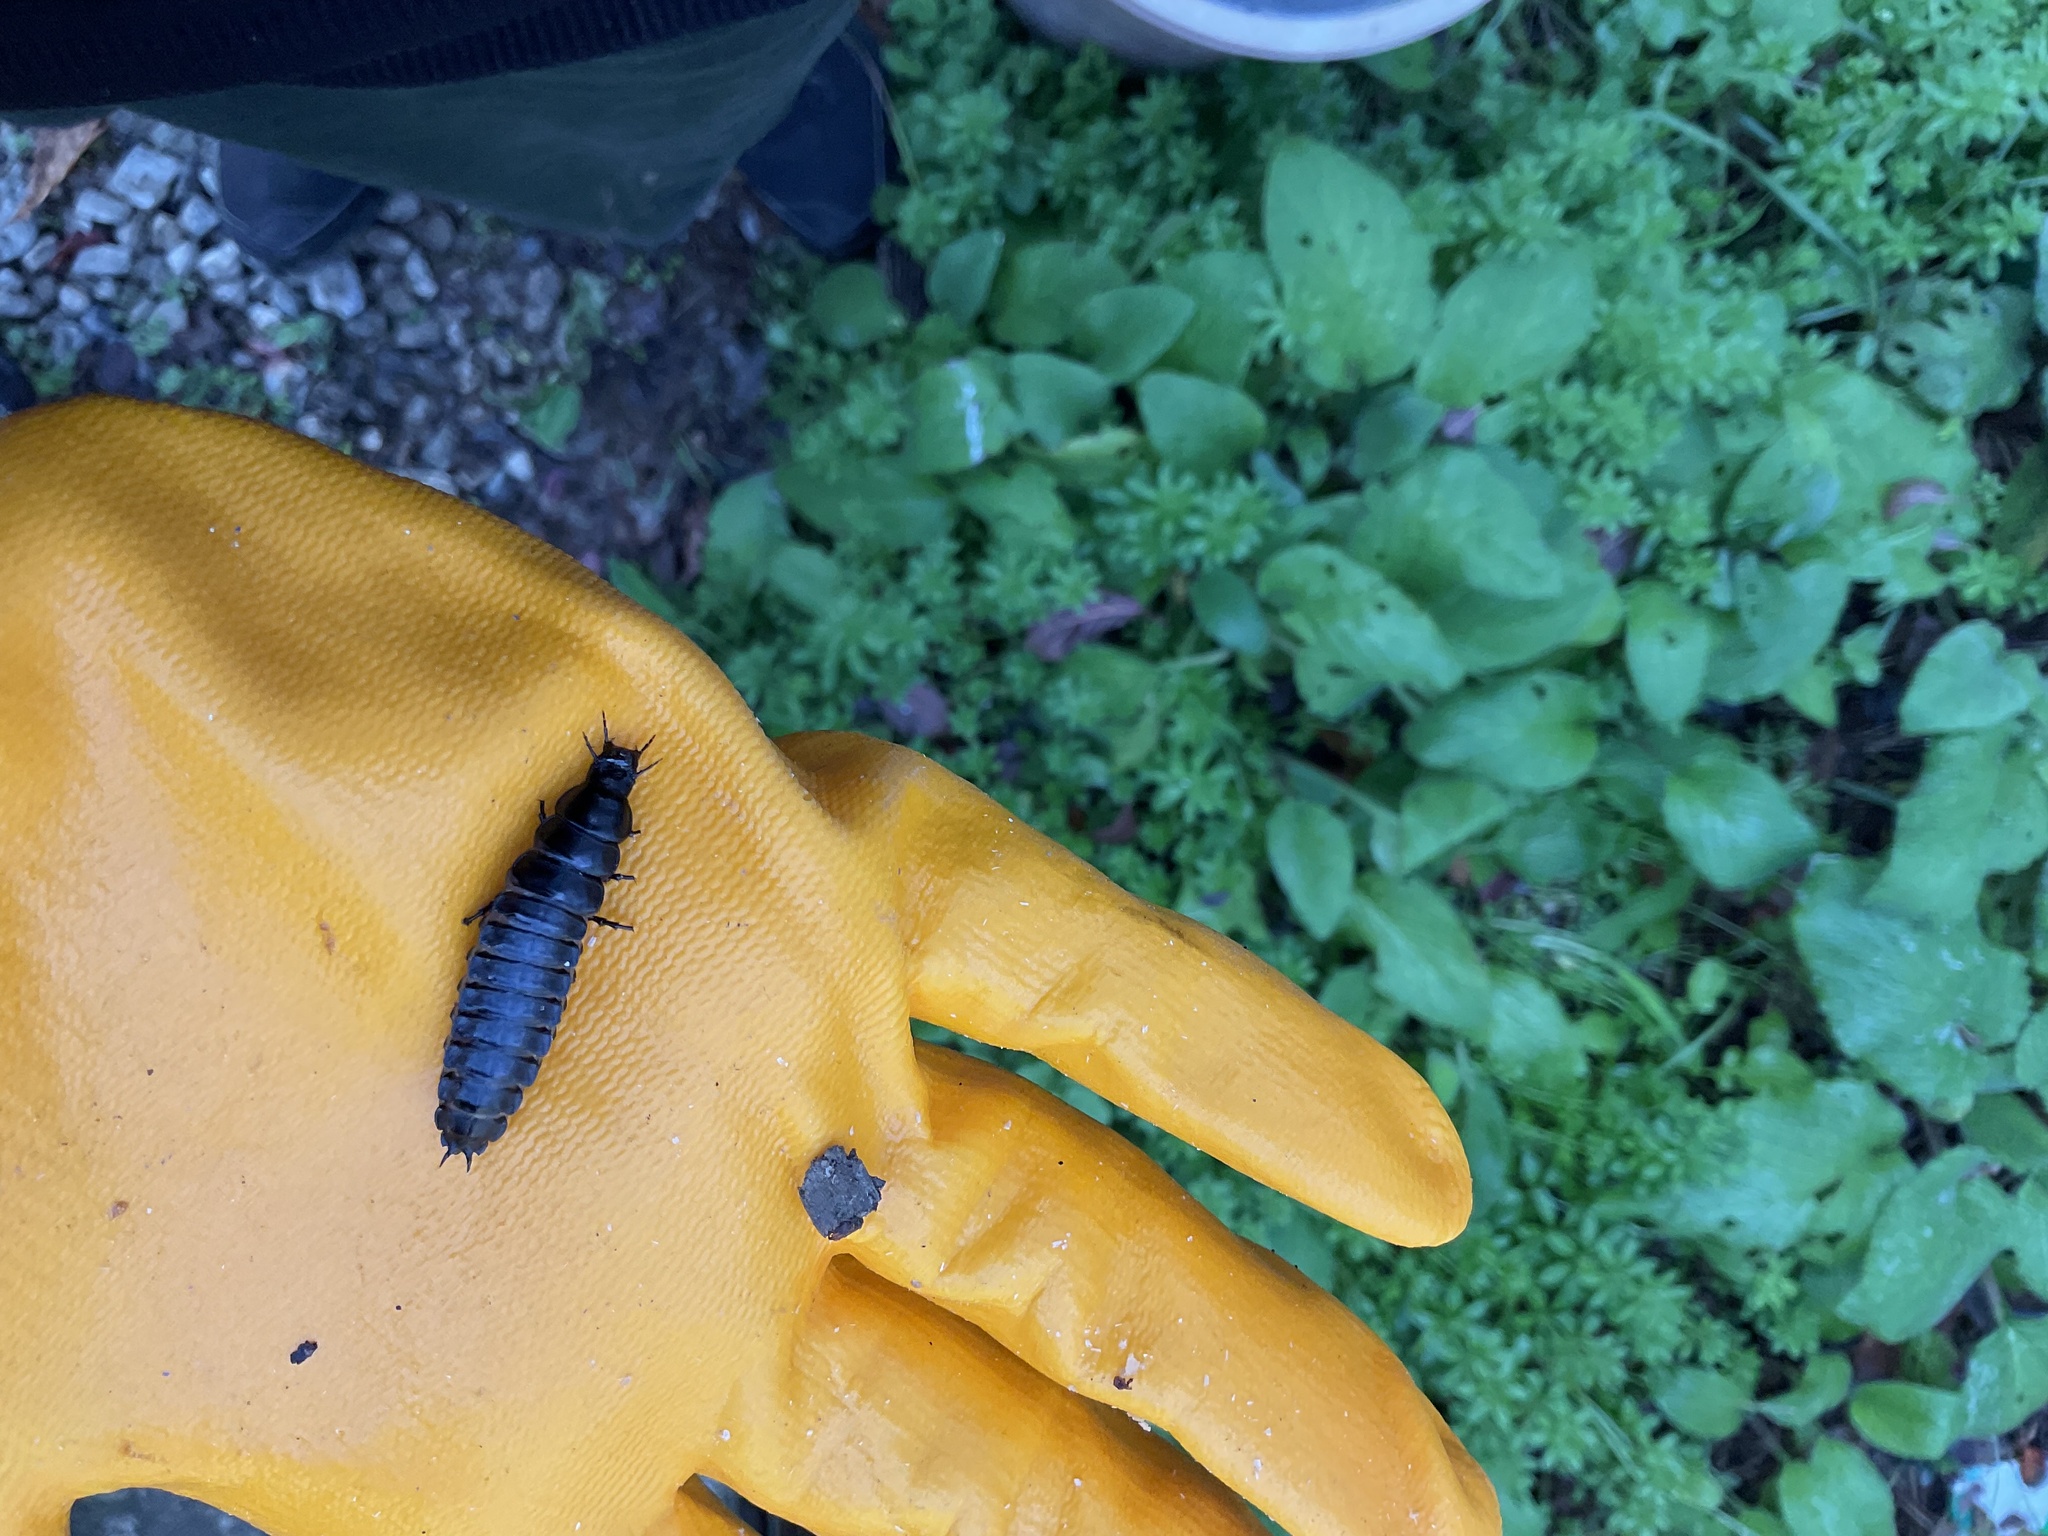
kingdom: Animalia
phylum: Arthropoda
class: Insecta
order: Coleoptera
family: Carabidae
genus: Carabus
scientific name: Carabus coriaceus
